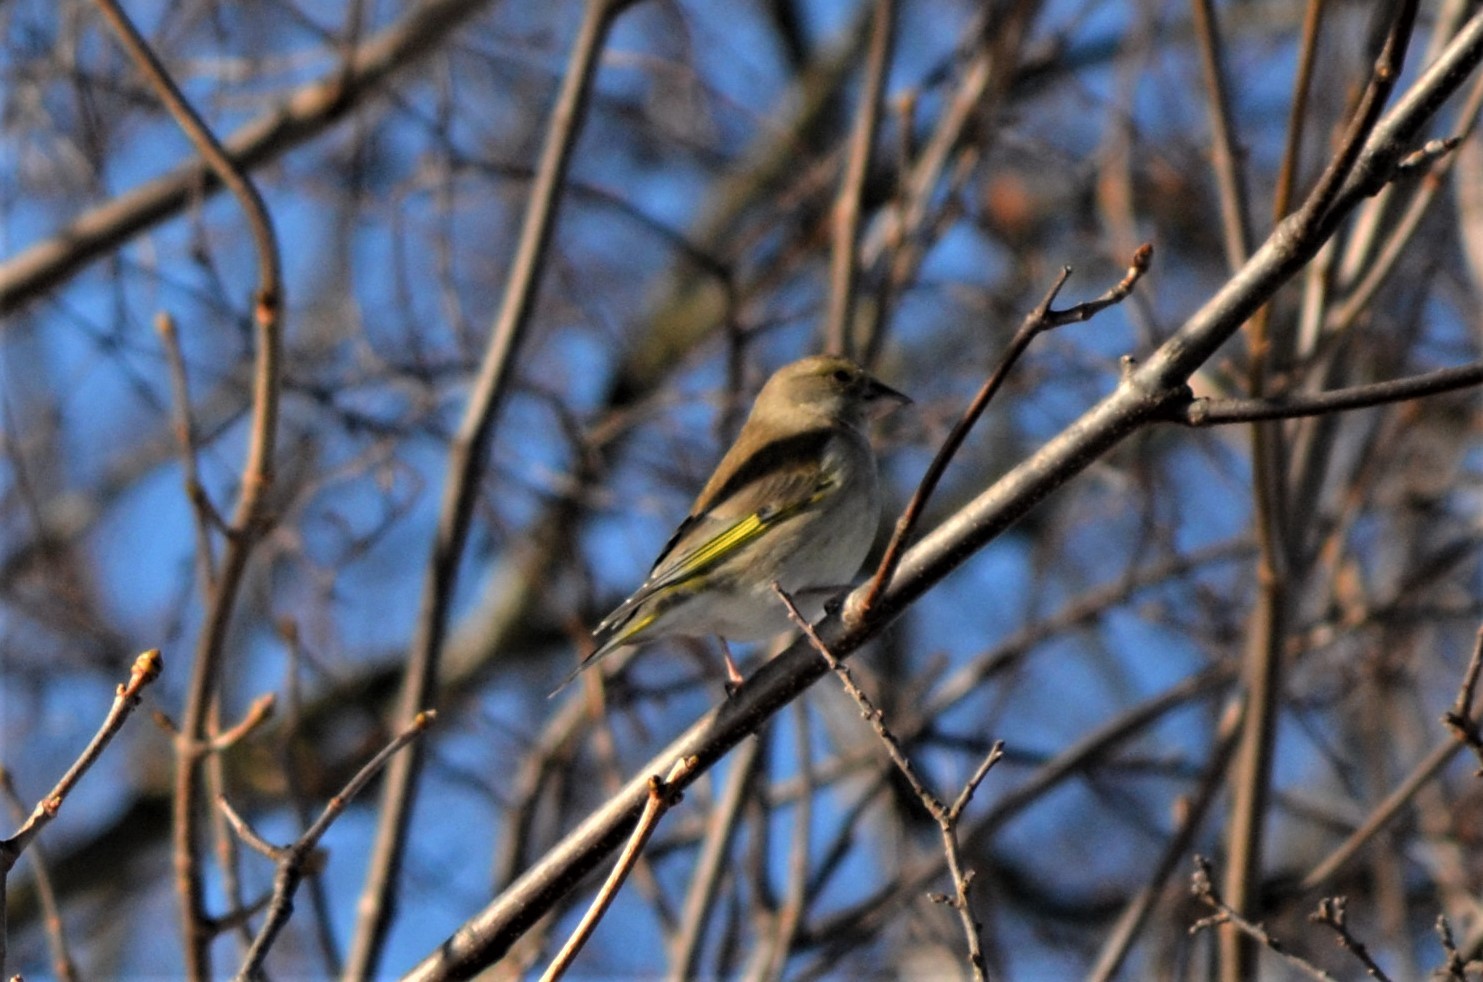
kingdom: Plantae
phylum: Tracheophyta
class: Liliopsida
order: Poales
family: Poaceae
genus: Chloris
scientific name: Chloris chloris
